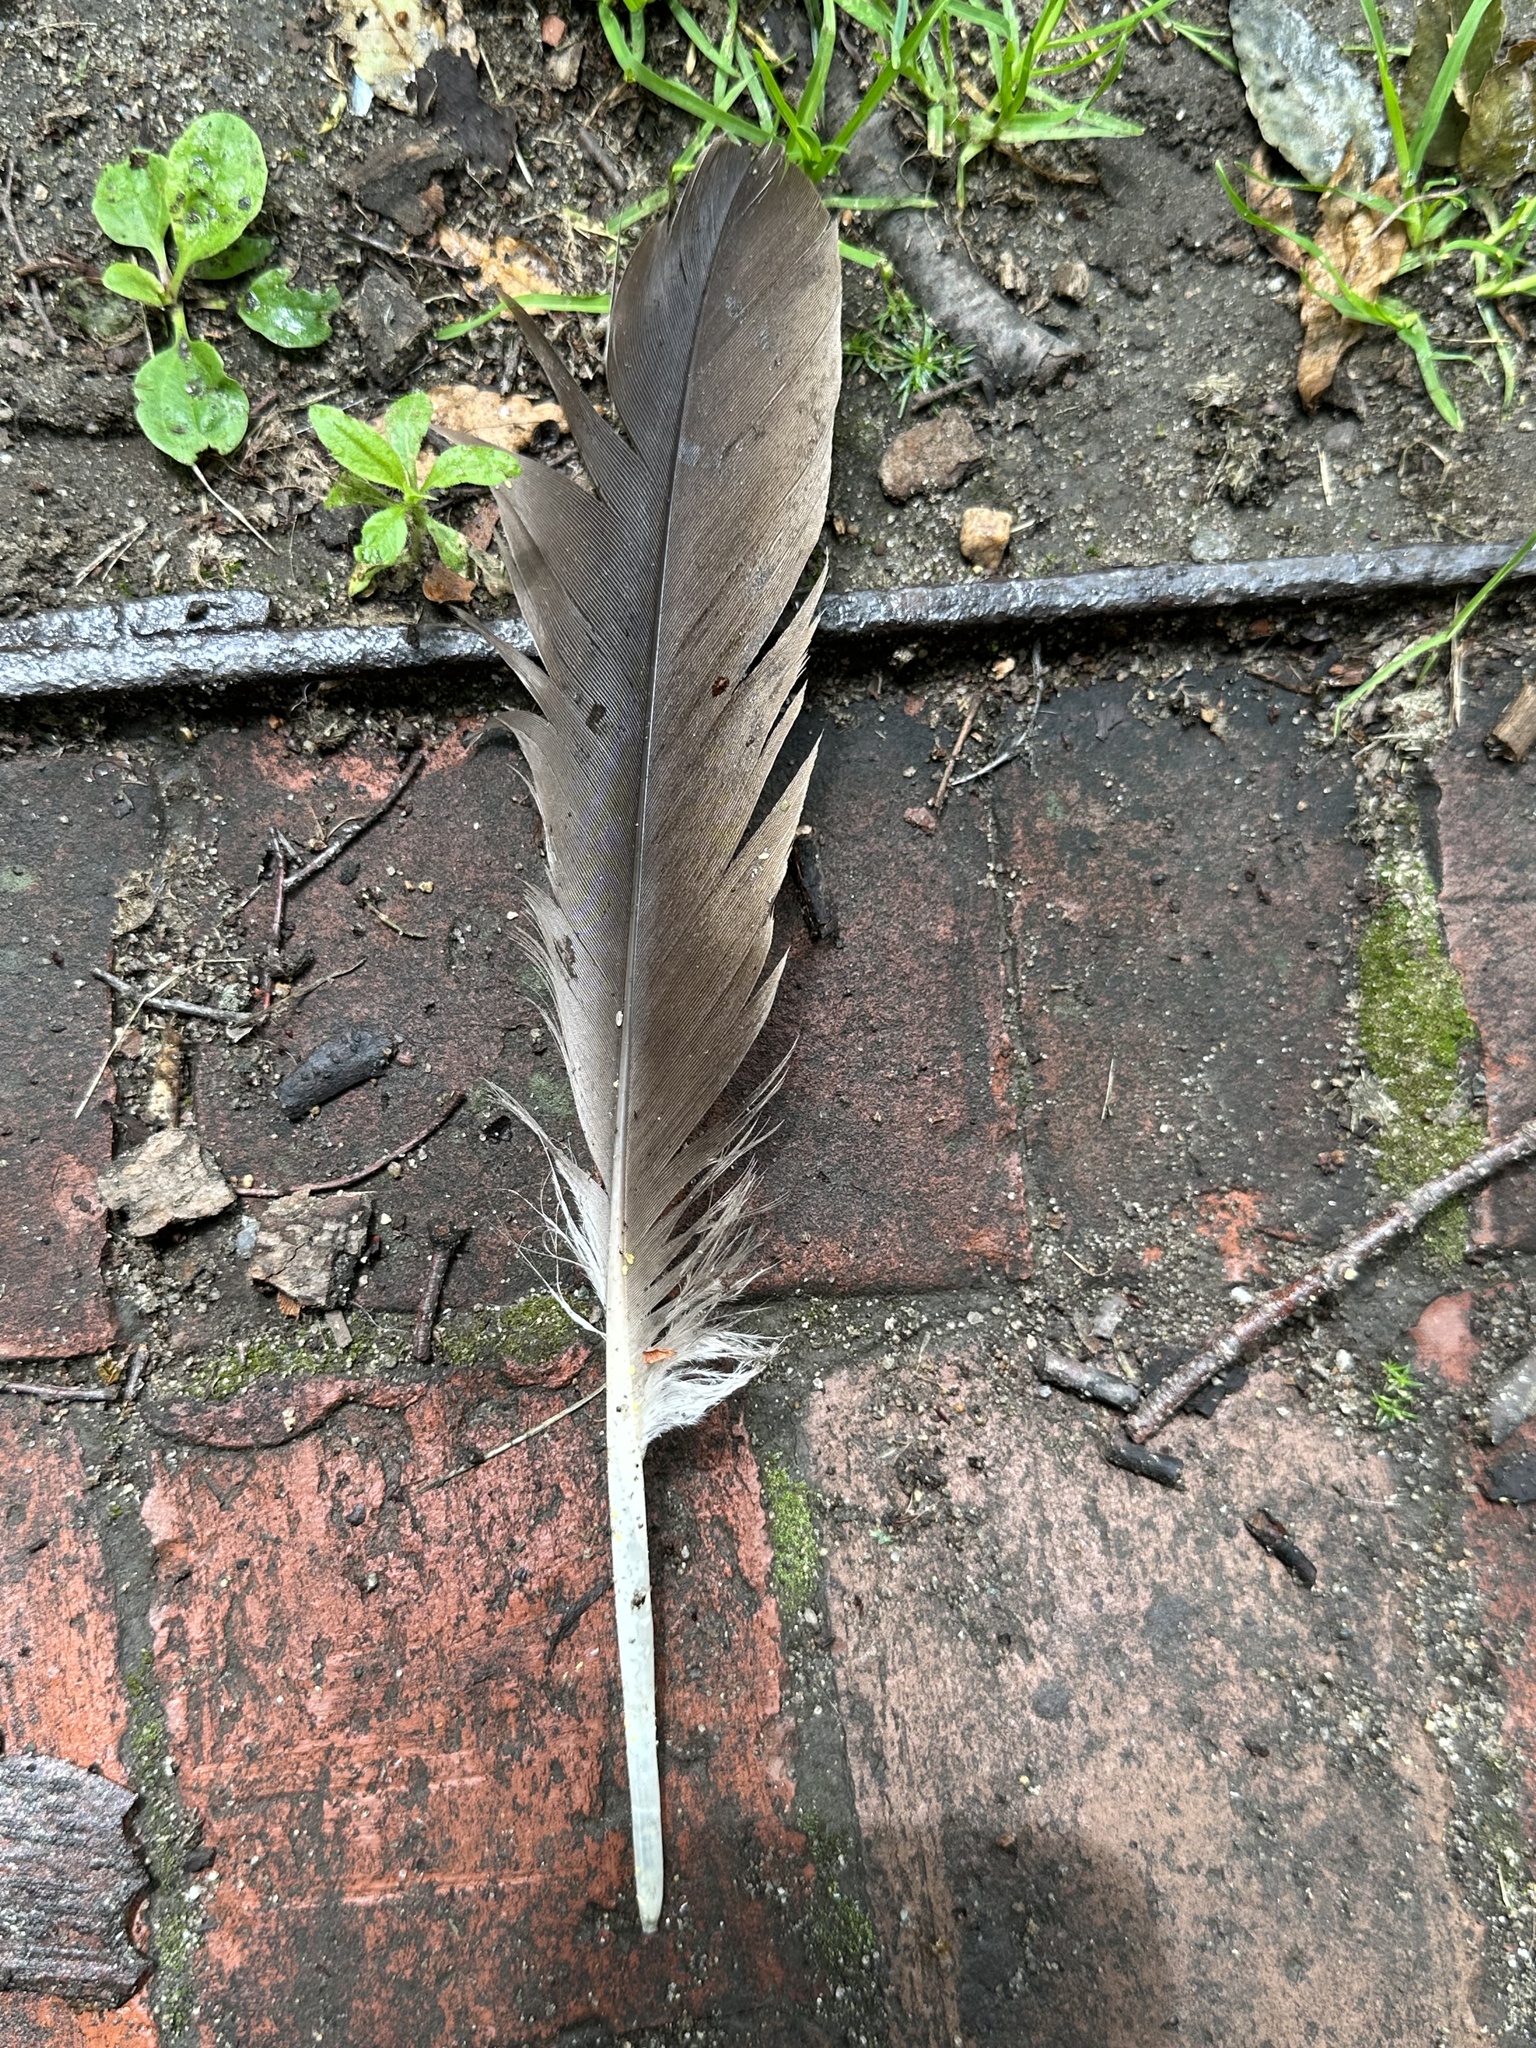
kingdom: Animalia
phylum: Chordata
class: Aves
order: Anseriformes
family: Anatidae
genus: Branta
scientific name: Branta canadensis
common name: Canada goose
